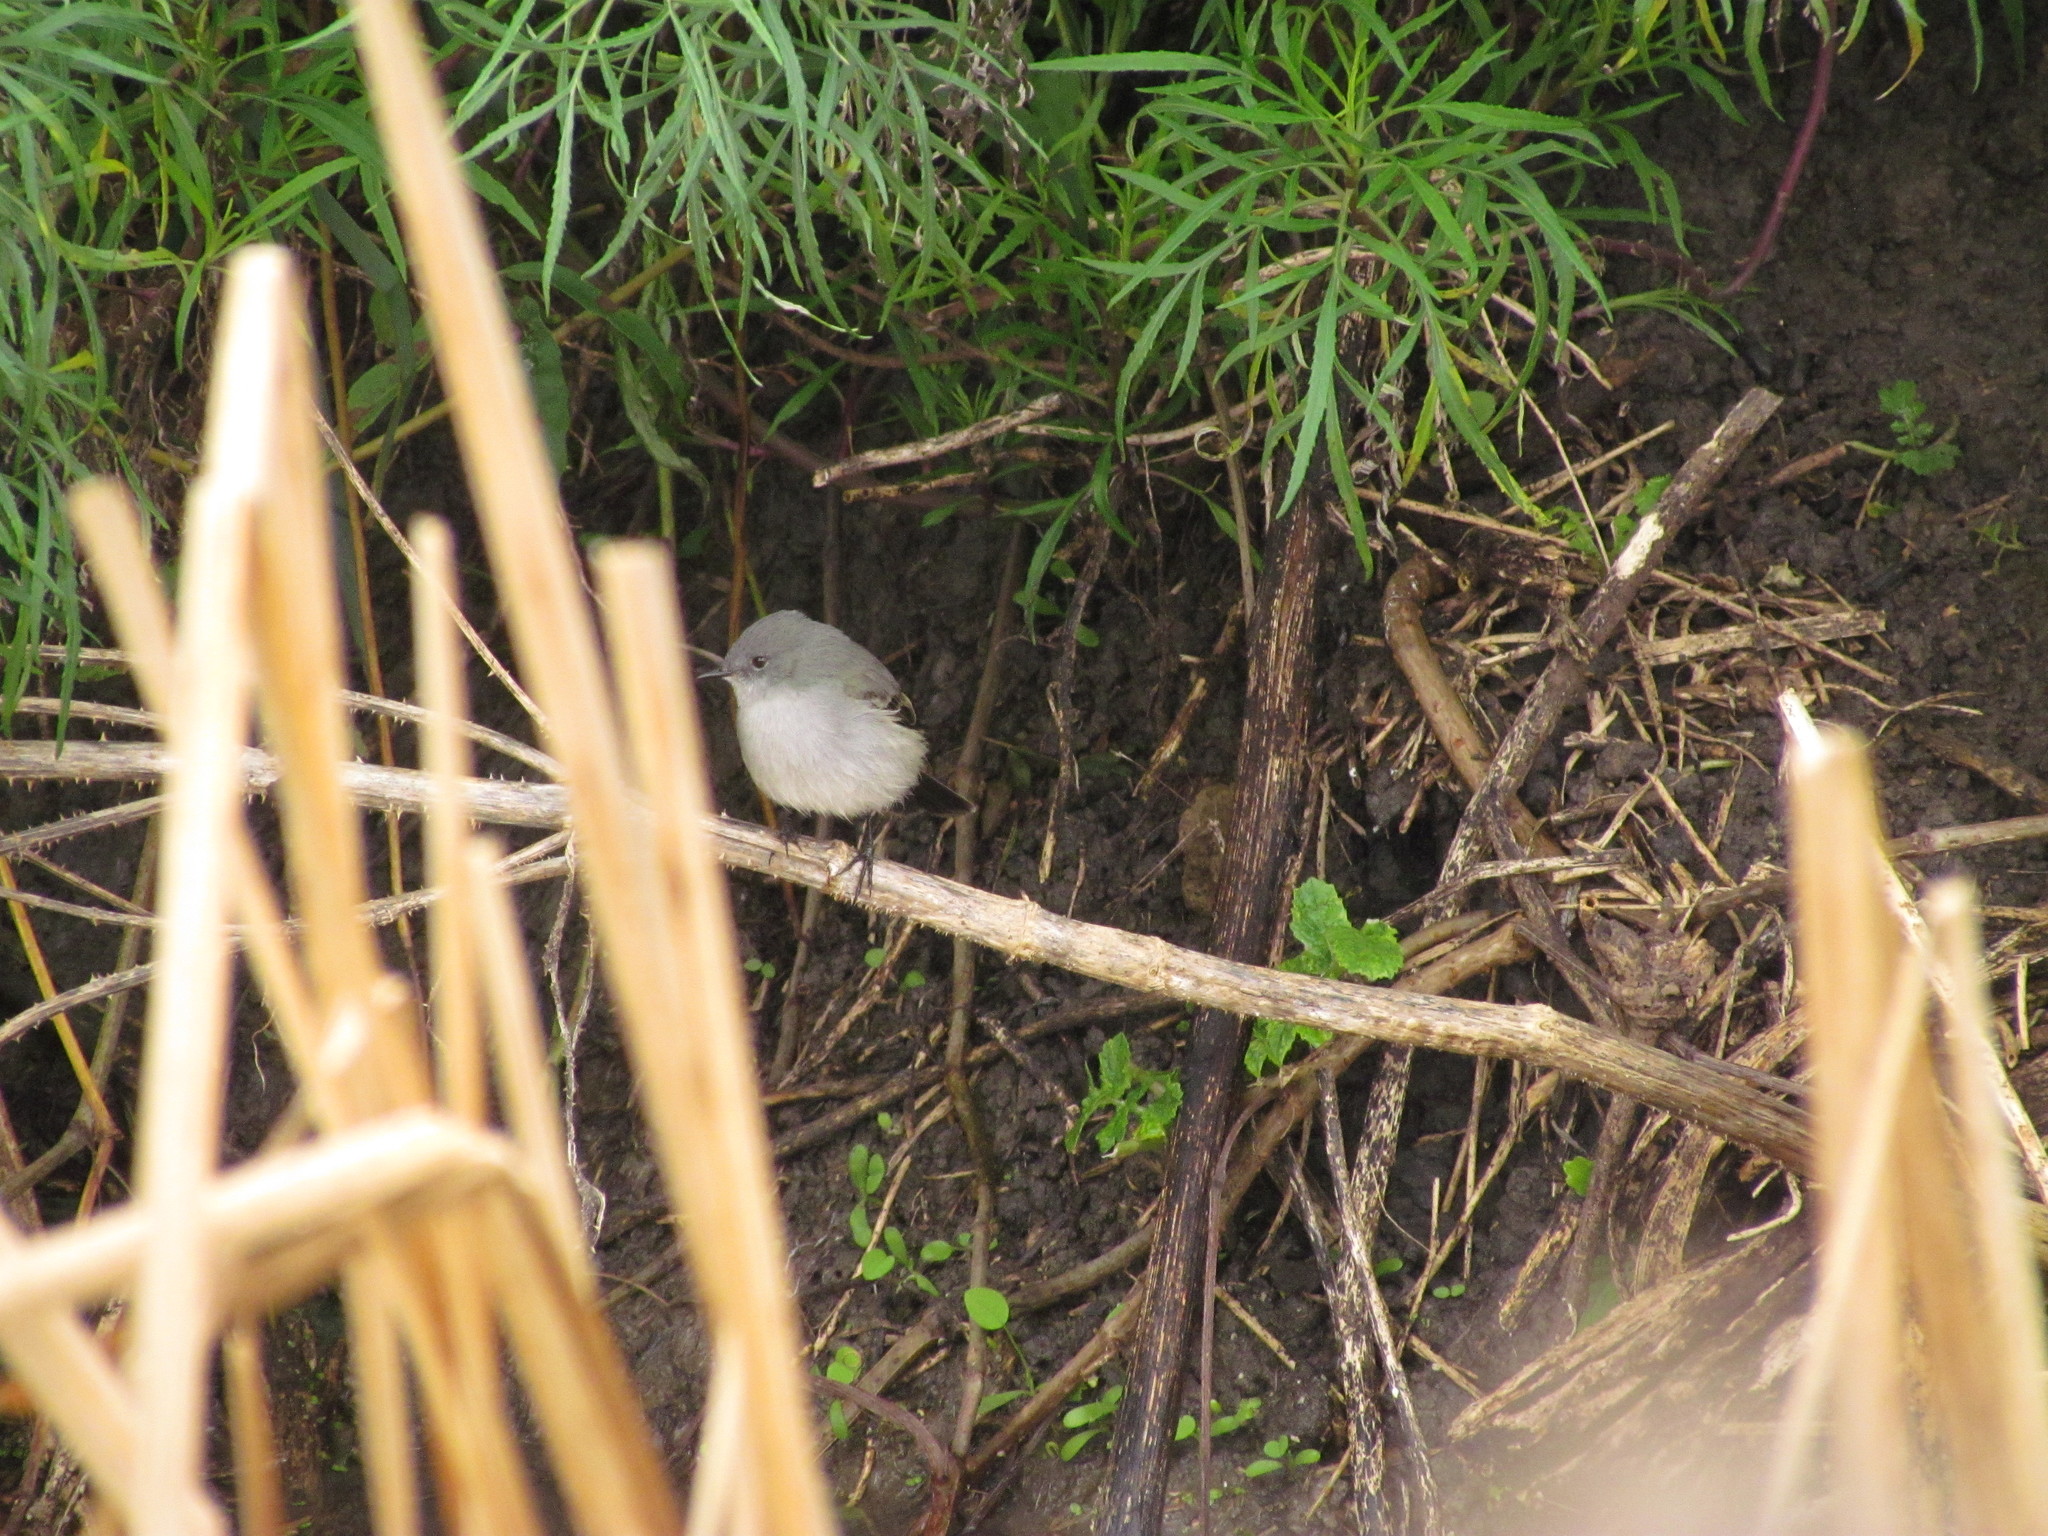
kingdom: Animalia
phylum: Chordata
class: Aves
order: Passeriformes
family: Tyrannidae
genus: Serpophaga
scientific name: Serpophaga nigricans
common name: Sooty tyrannulet
